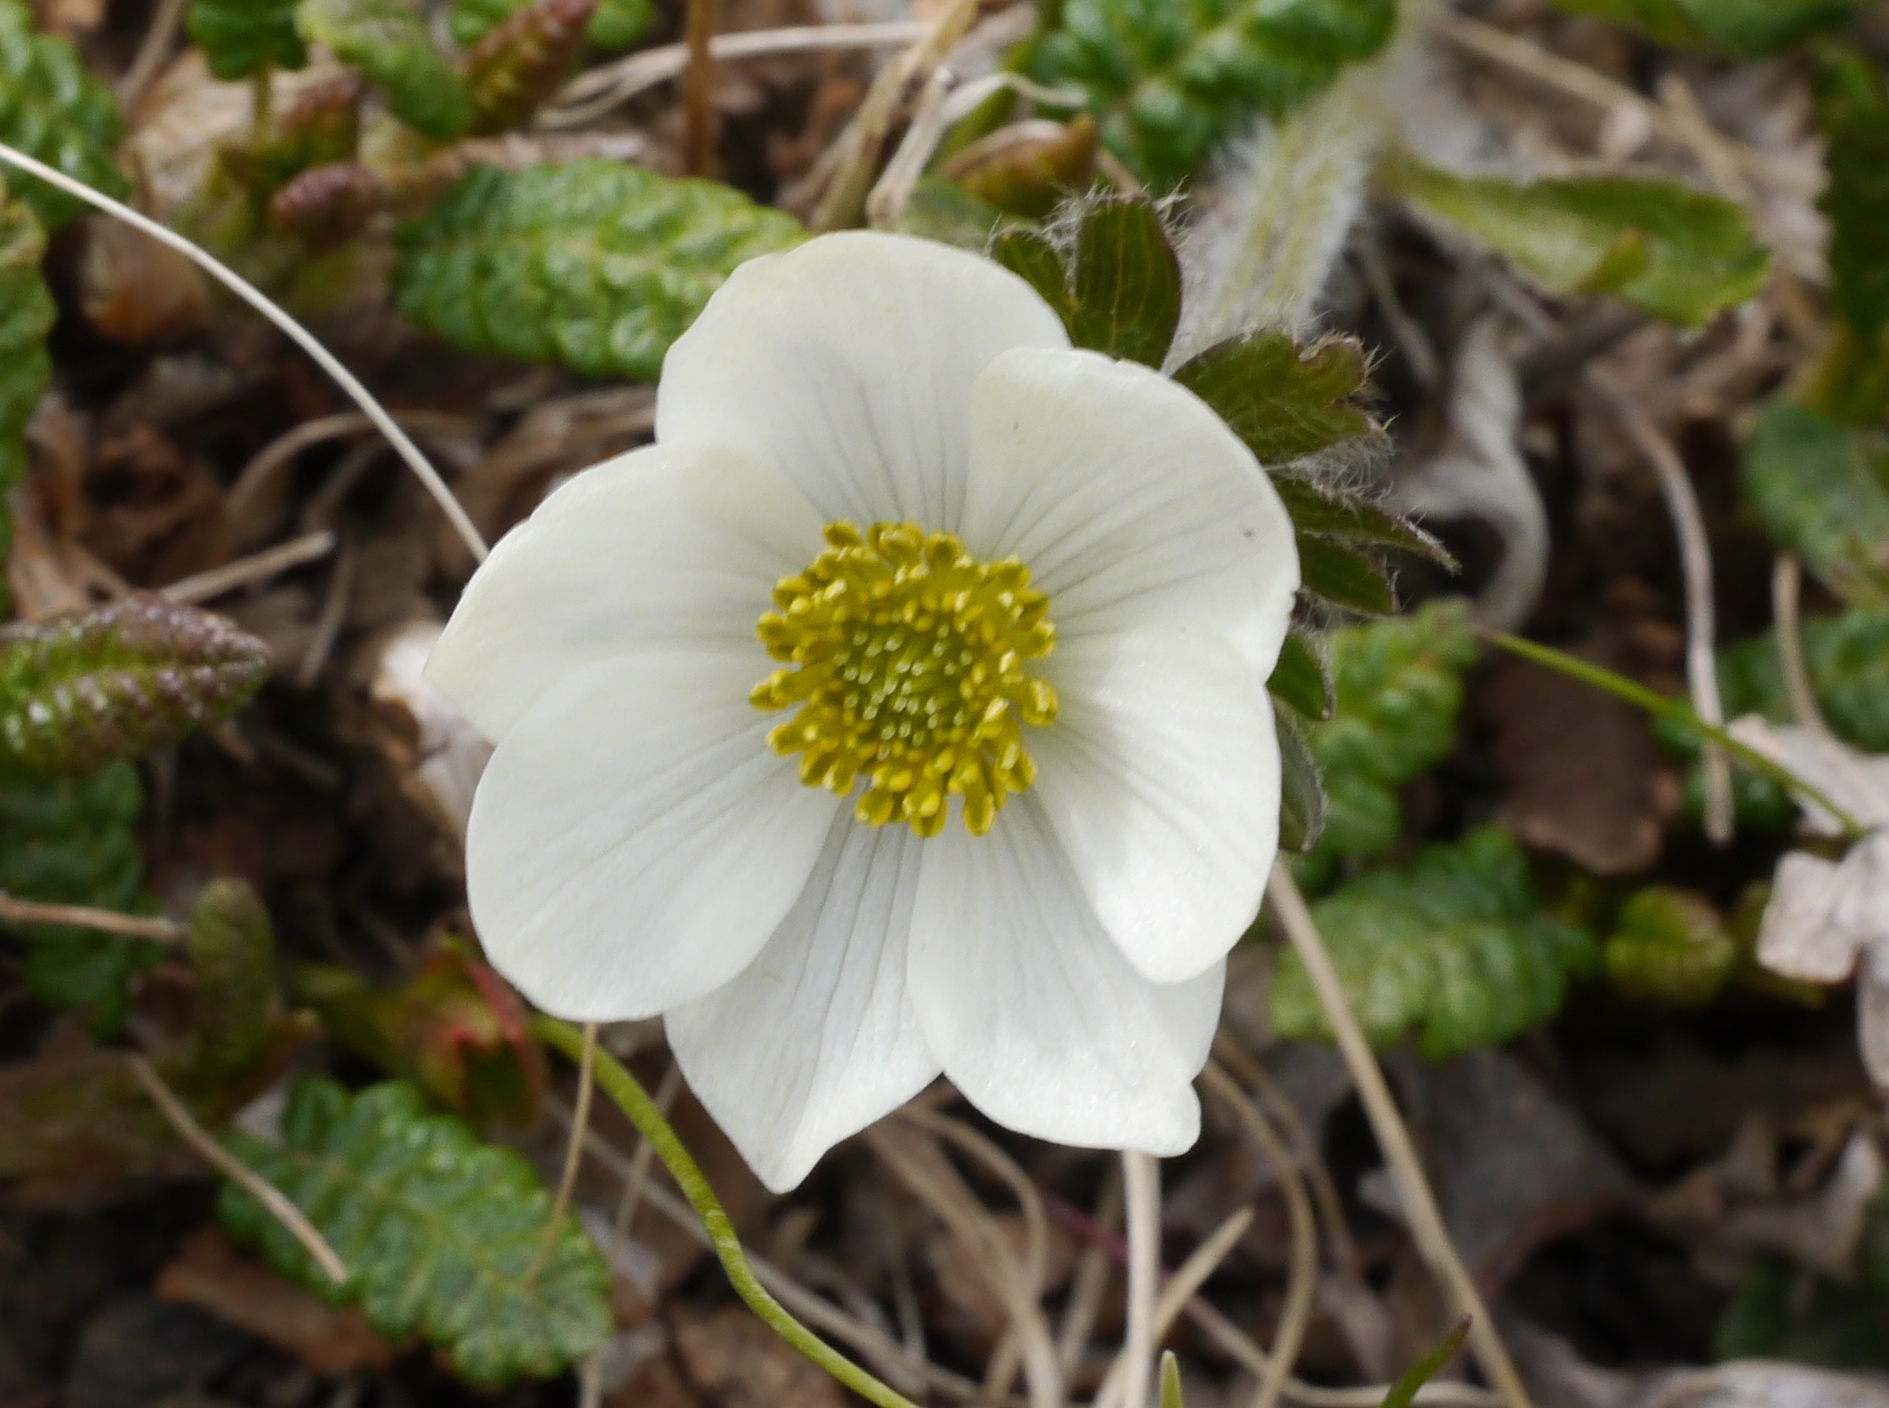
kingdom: Plantae
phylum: Tracheophyta
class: Magnoliopsida
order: Ranunculales
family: Ranunculaceae
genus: Anemonastrum
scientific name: Anemonastrum narcissiflorum
